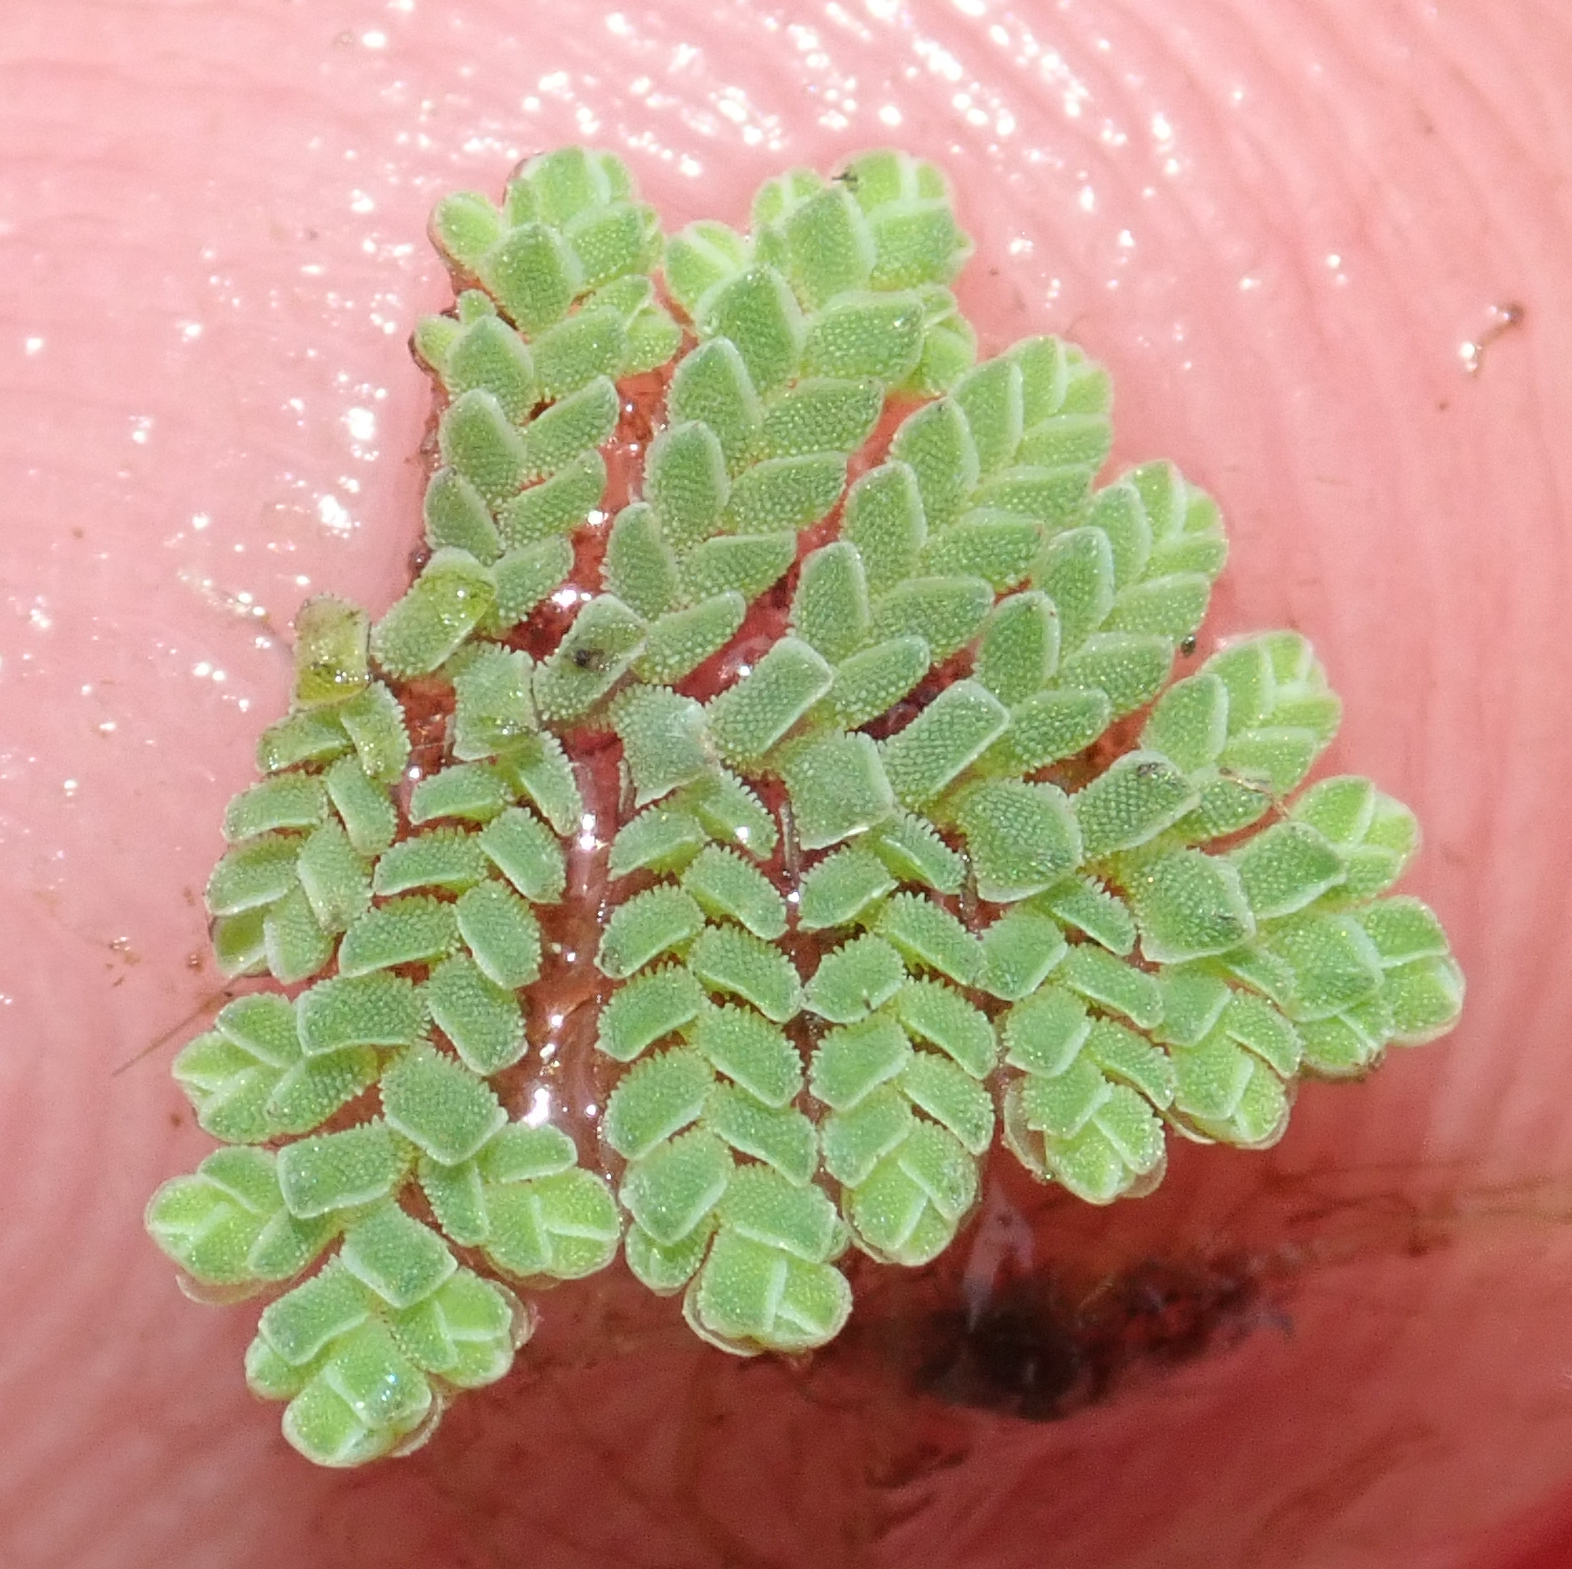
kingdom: Plantae
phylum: Tracheophyta
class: Polypodiopsida
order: Salviniales
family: Salviniaceae
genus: Azolla
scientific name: Azolla pinnata
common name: Ferny azolla
